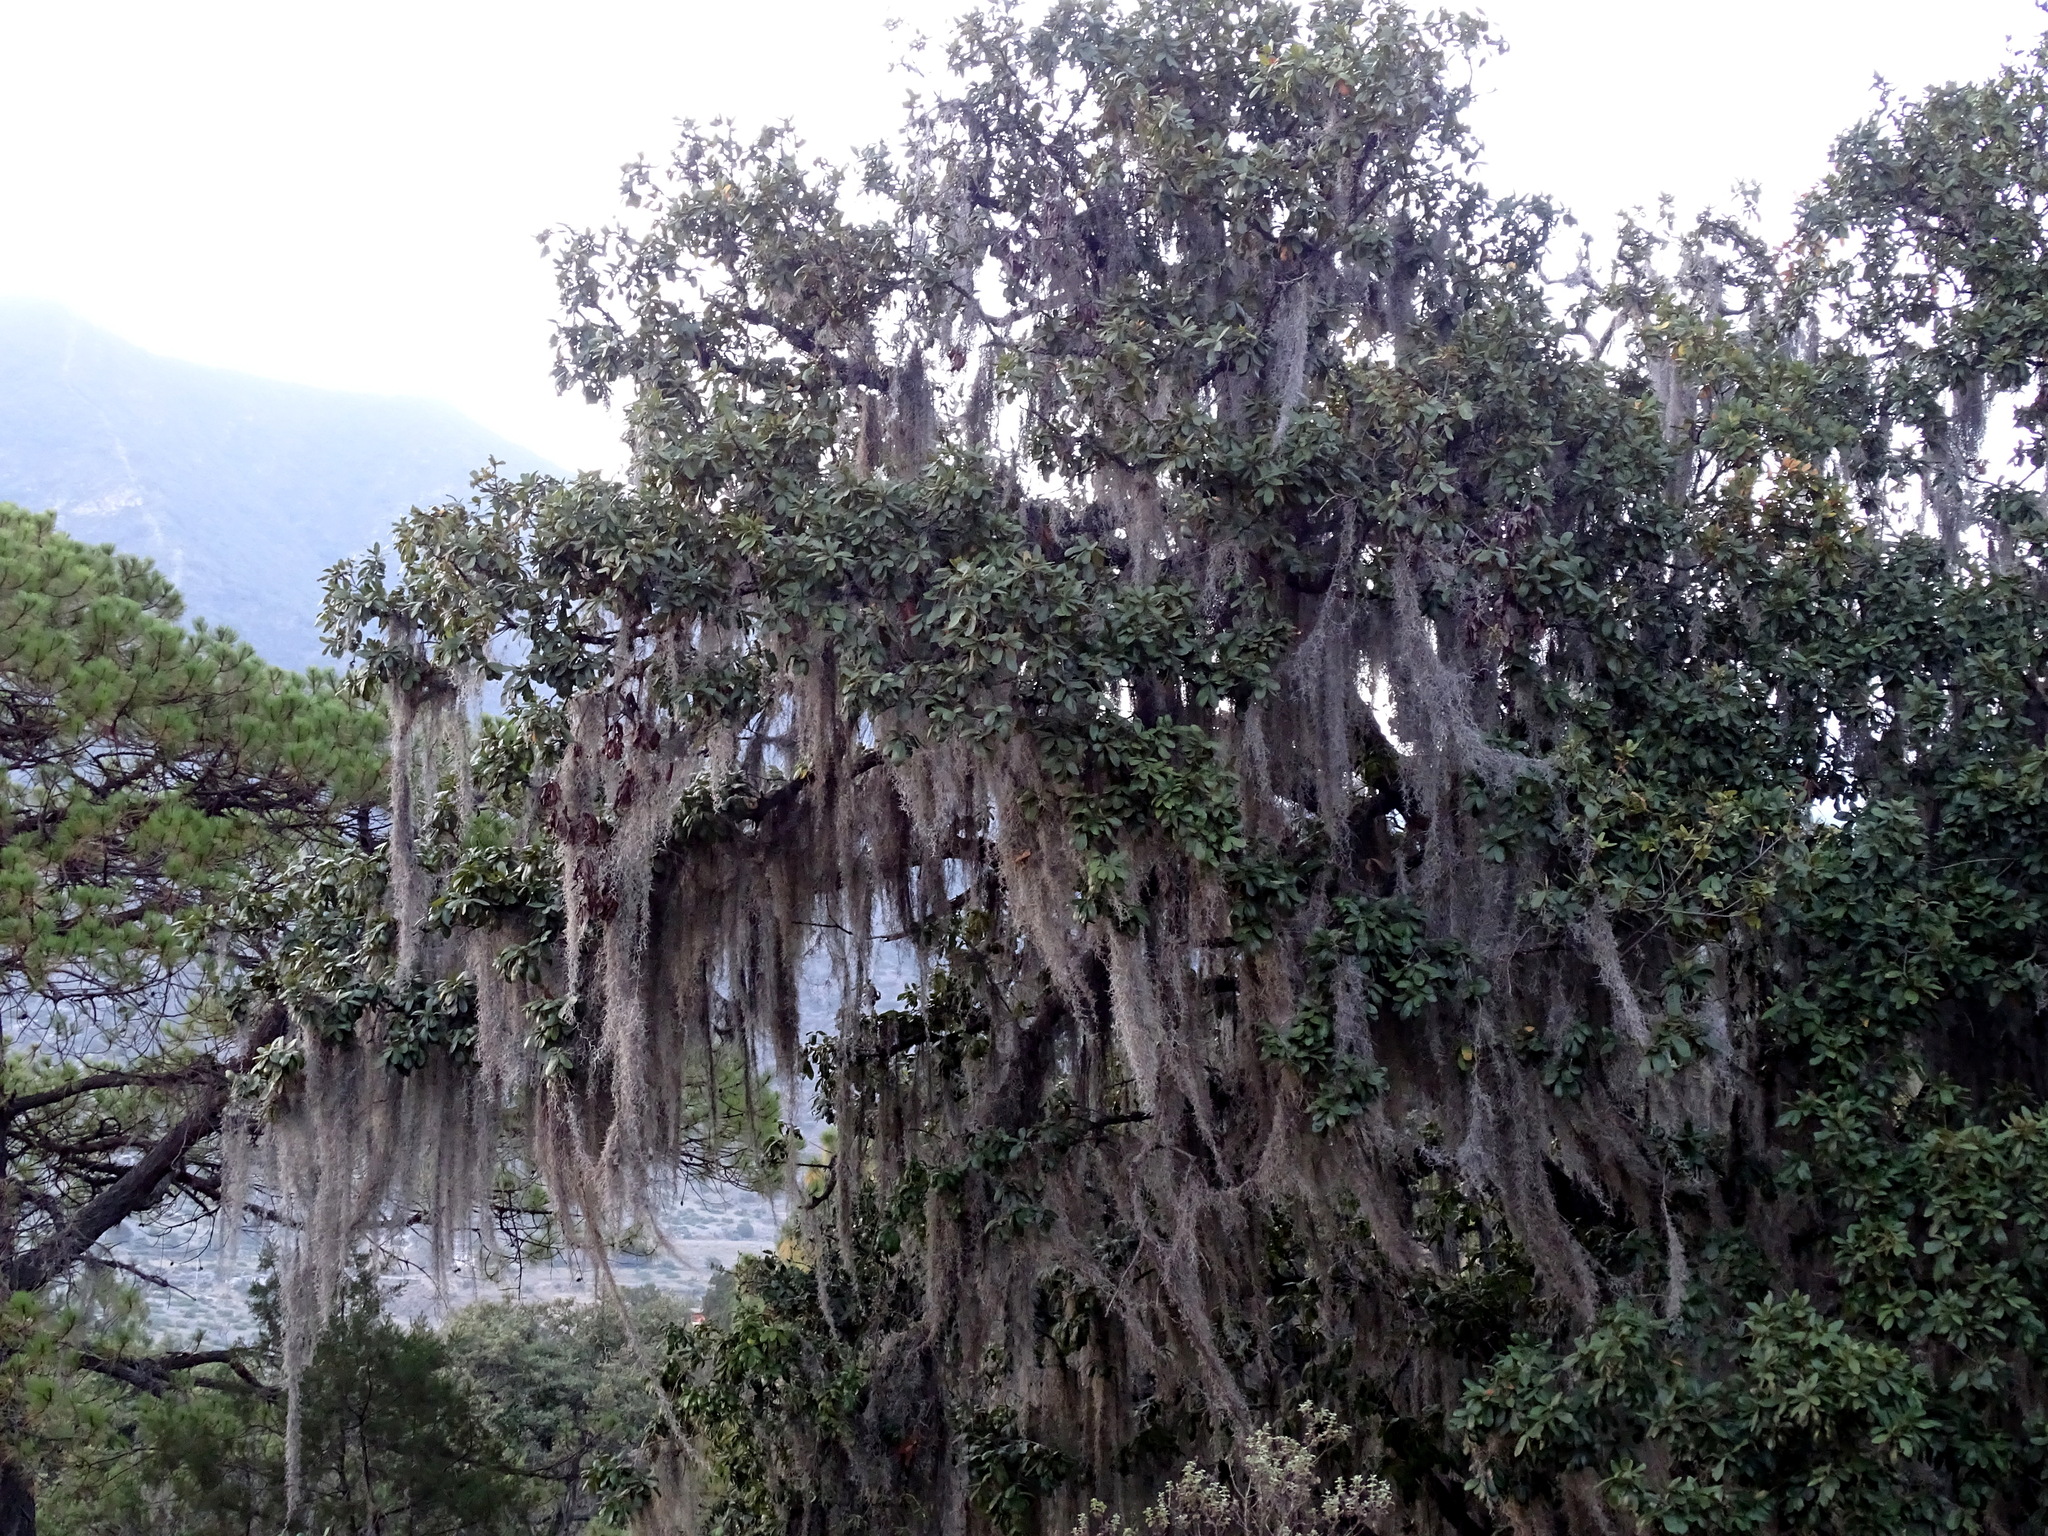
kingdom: Plantae
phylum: Tracheophyta
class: Liliopsida
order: Poales
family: Bromeliaceae
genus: Tillandsia
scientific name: Tillandsia usneoides
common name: Spanish moss
